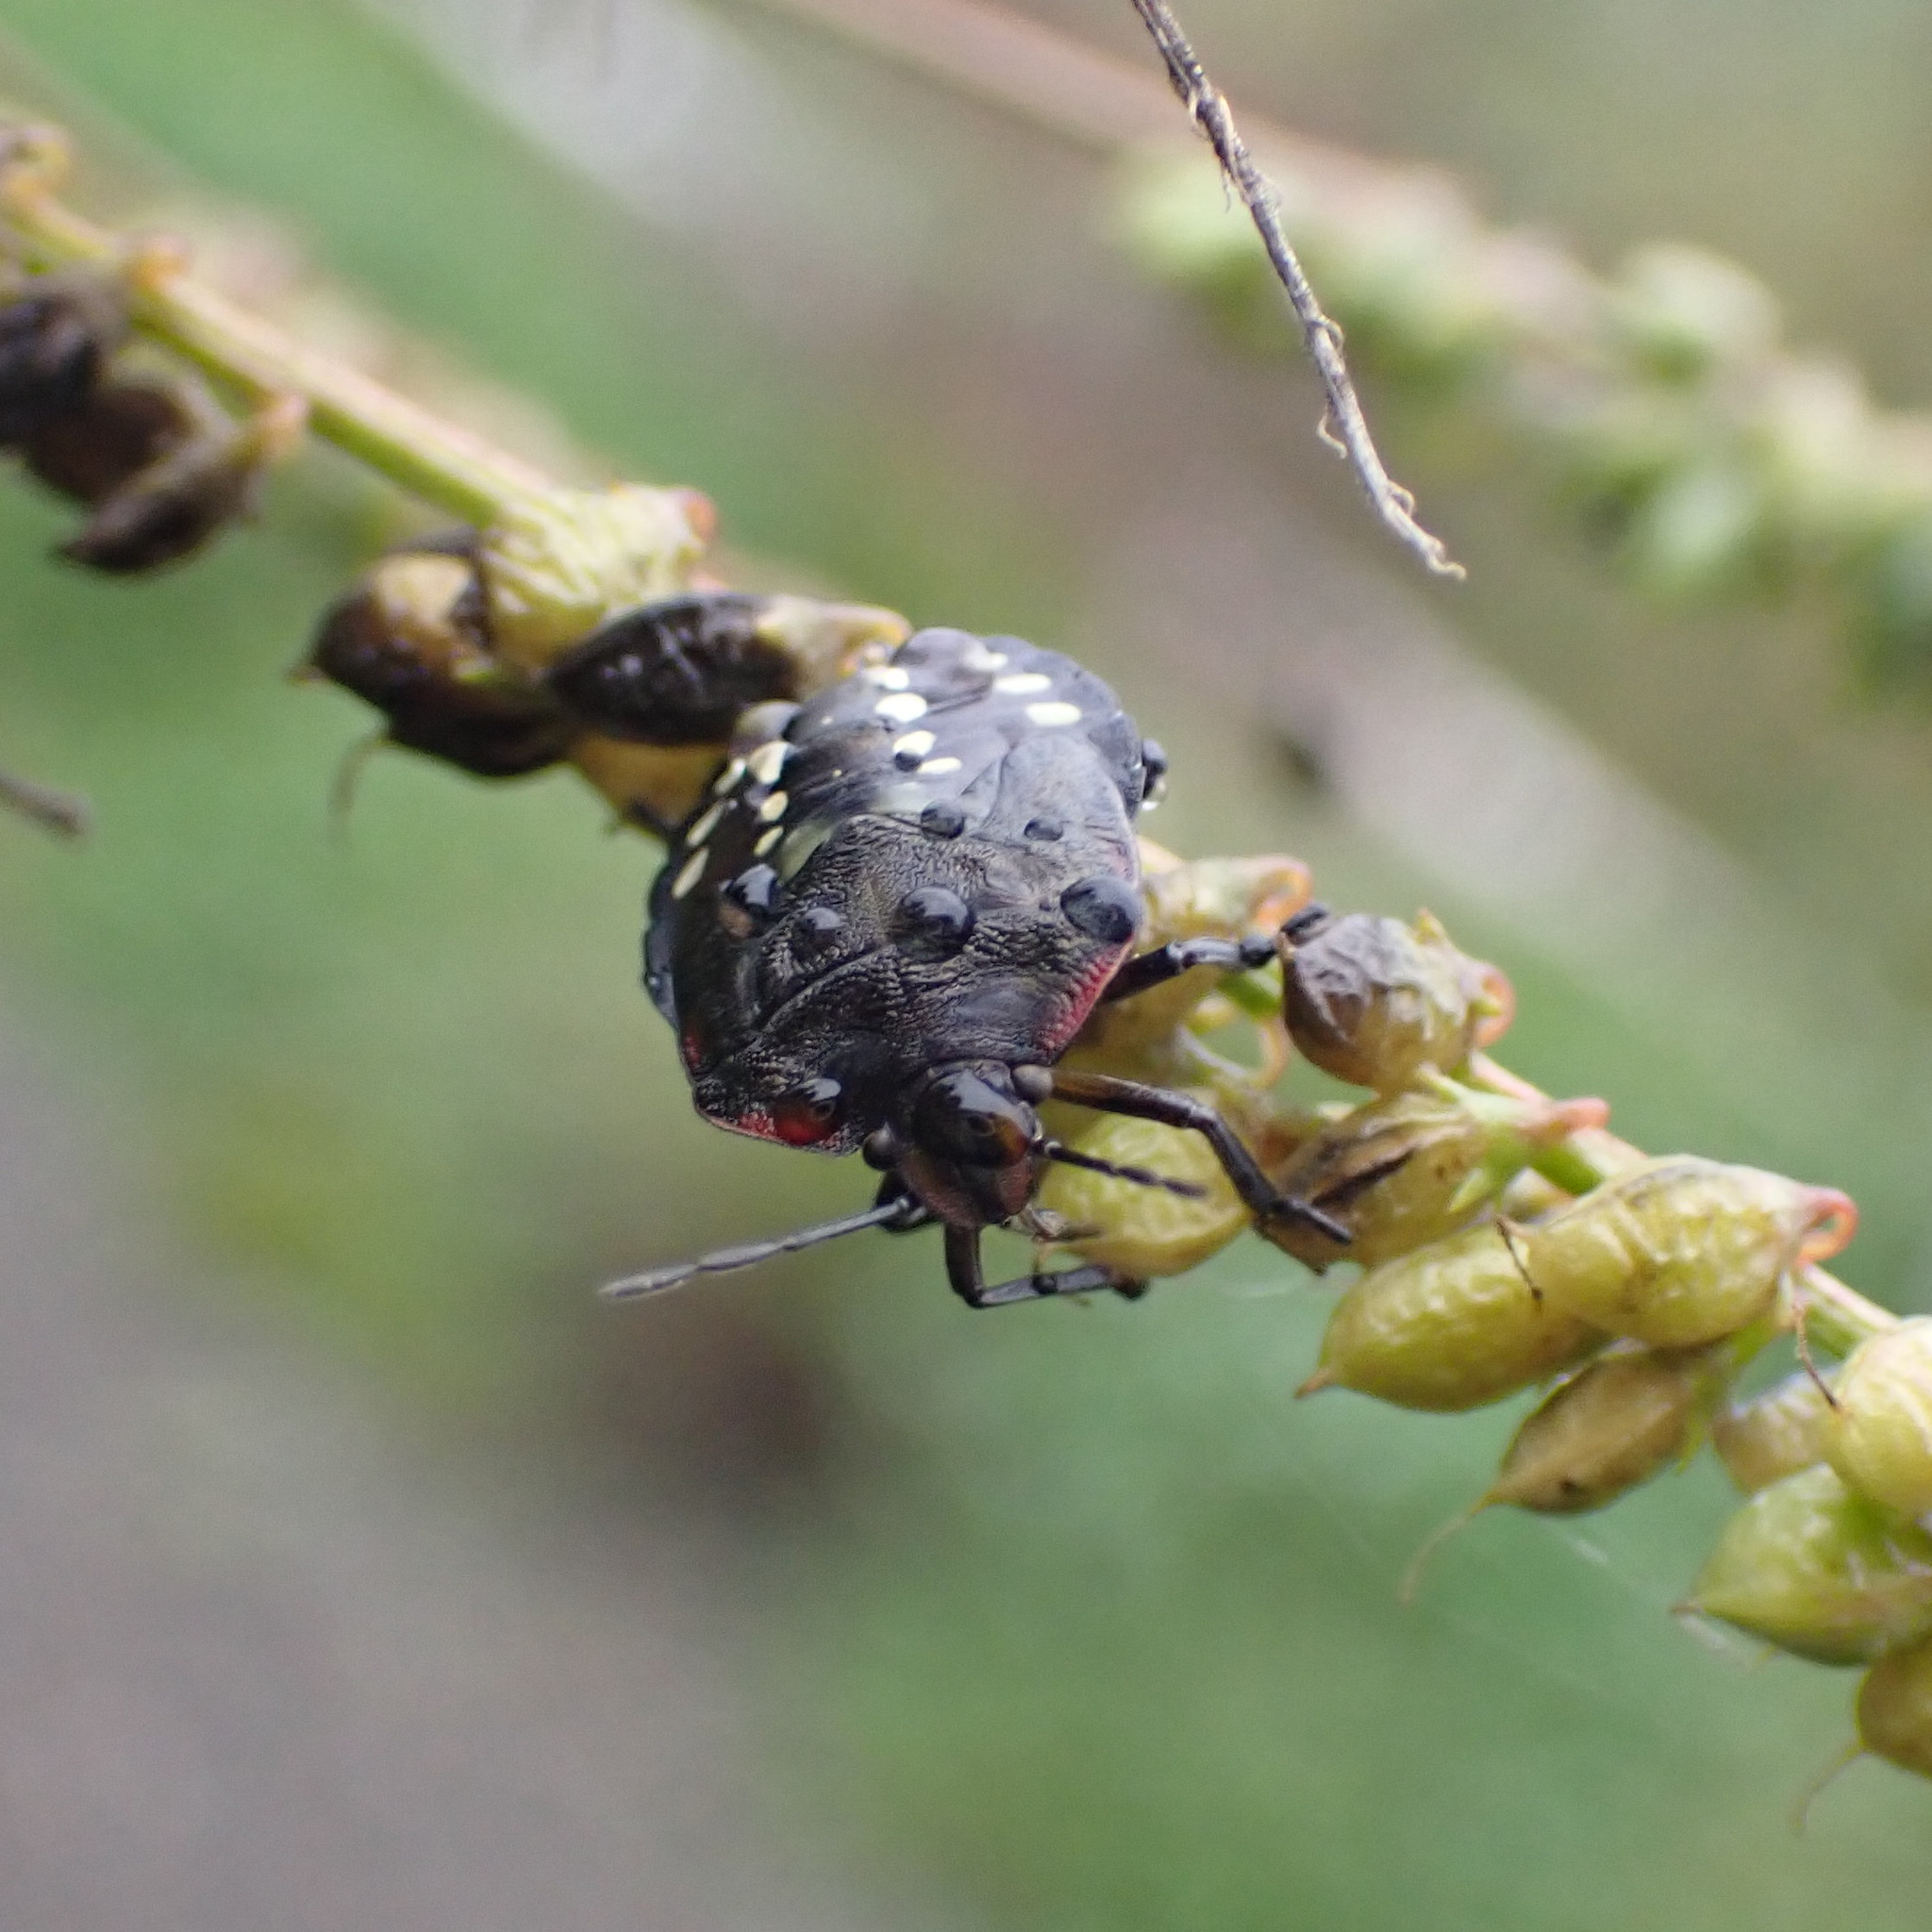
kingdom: Animalia
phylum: Arthropoda
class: Insecta
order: Hemiptera
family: Pentatomidae
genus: Nezara
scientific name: Nezara viridula
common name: Southern green stink bug
